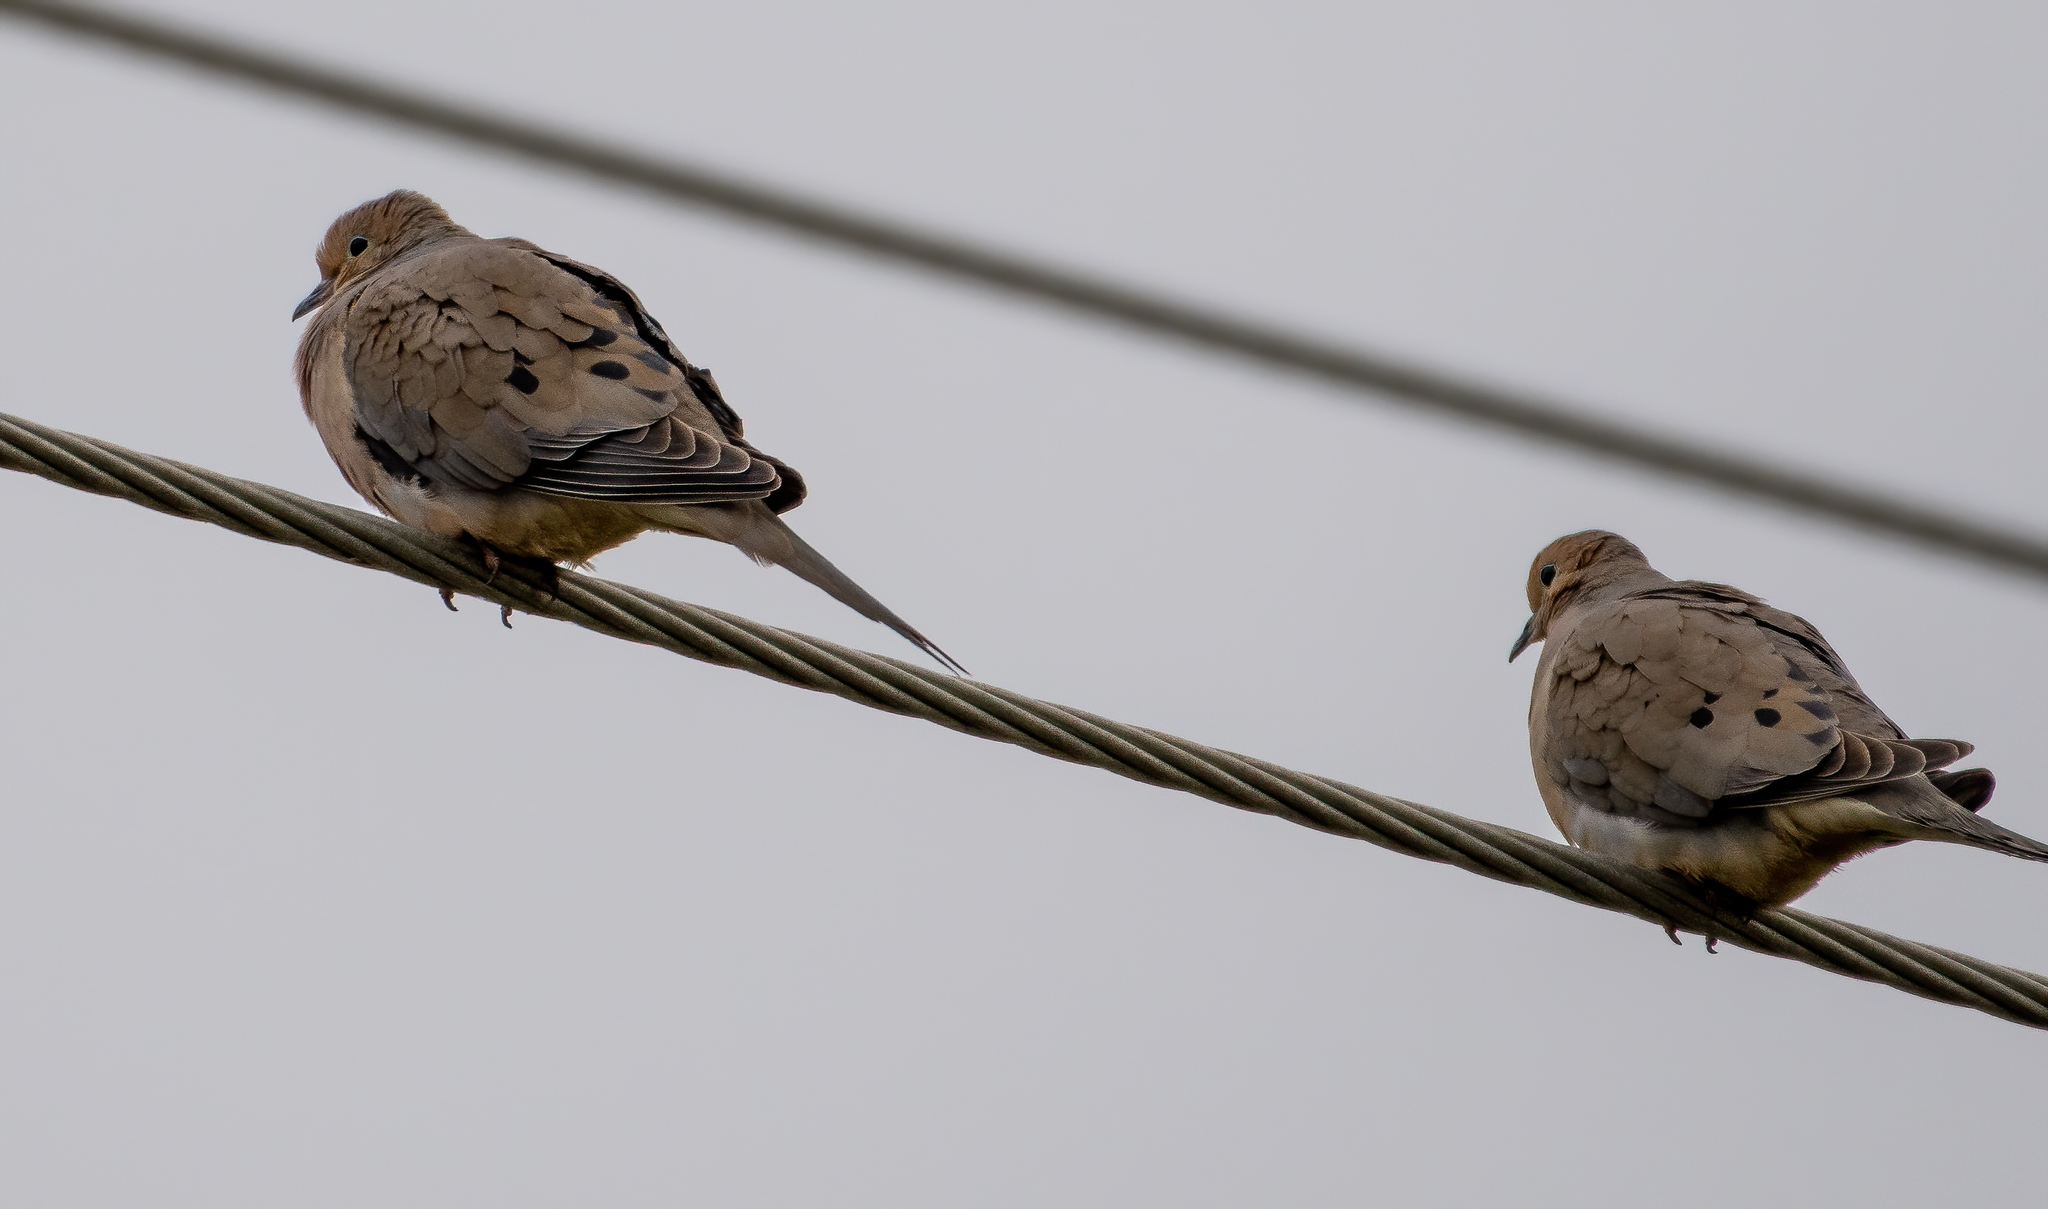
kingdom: Animalia
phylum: Chordata
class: Aves
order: Columbiformes
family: Columbidae
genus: Zenaida
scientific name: Zenaida macroura
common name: Mourning dove
